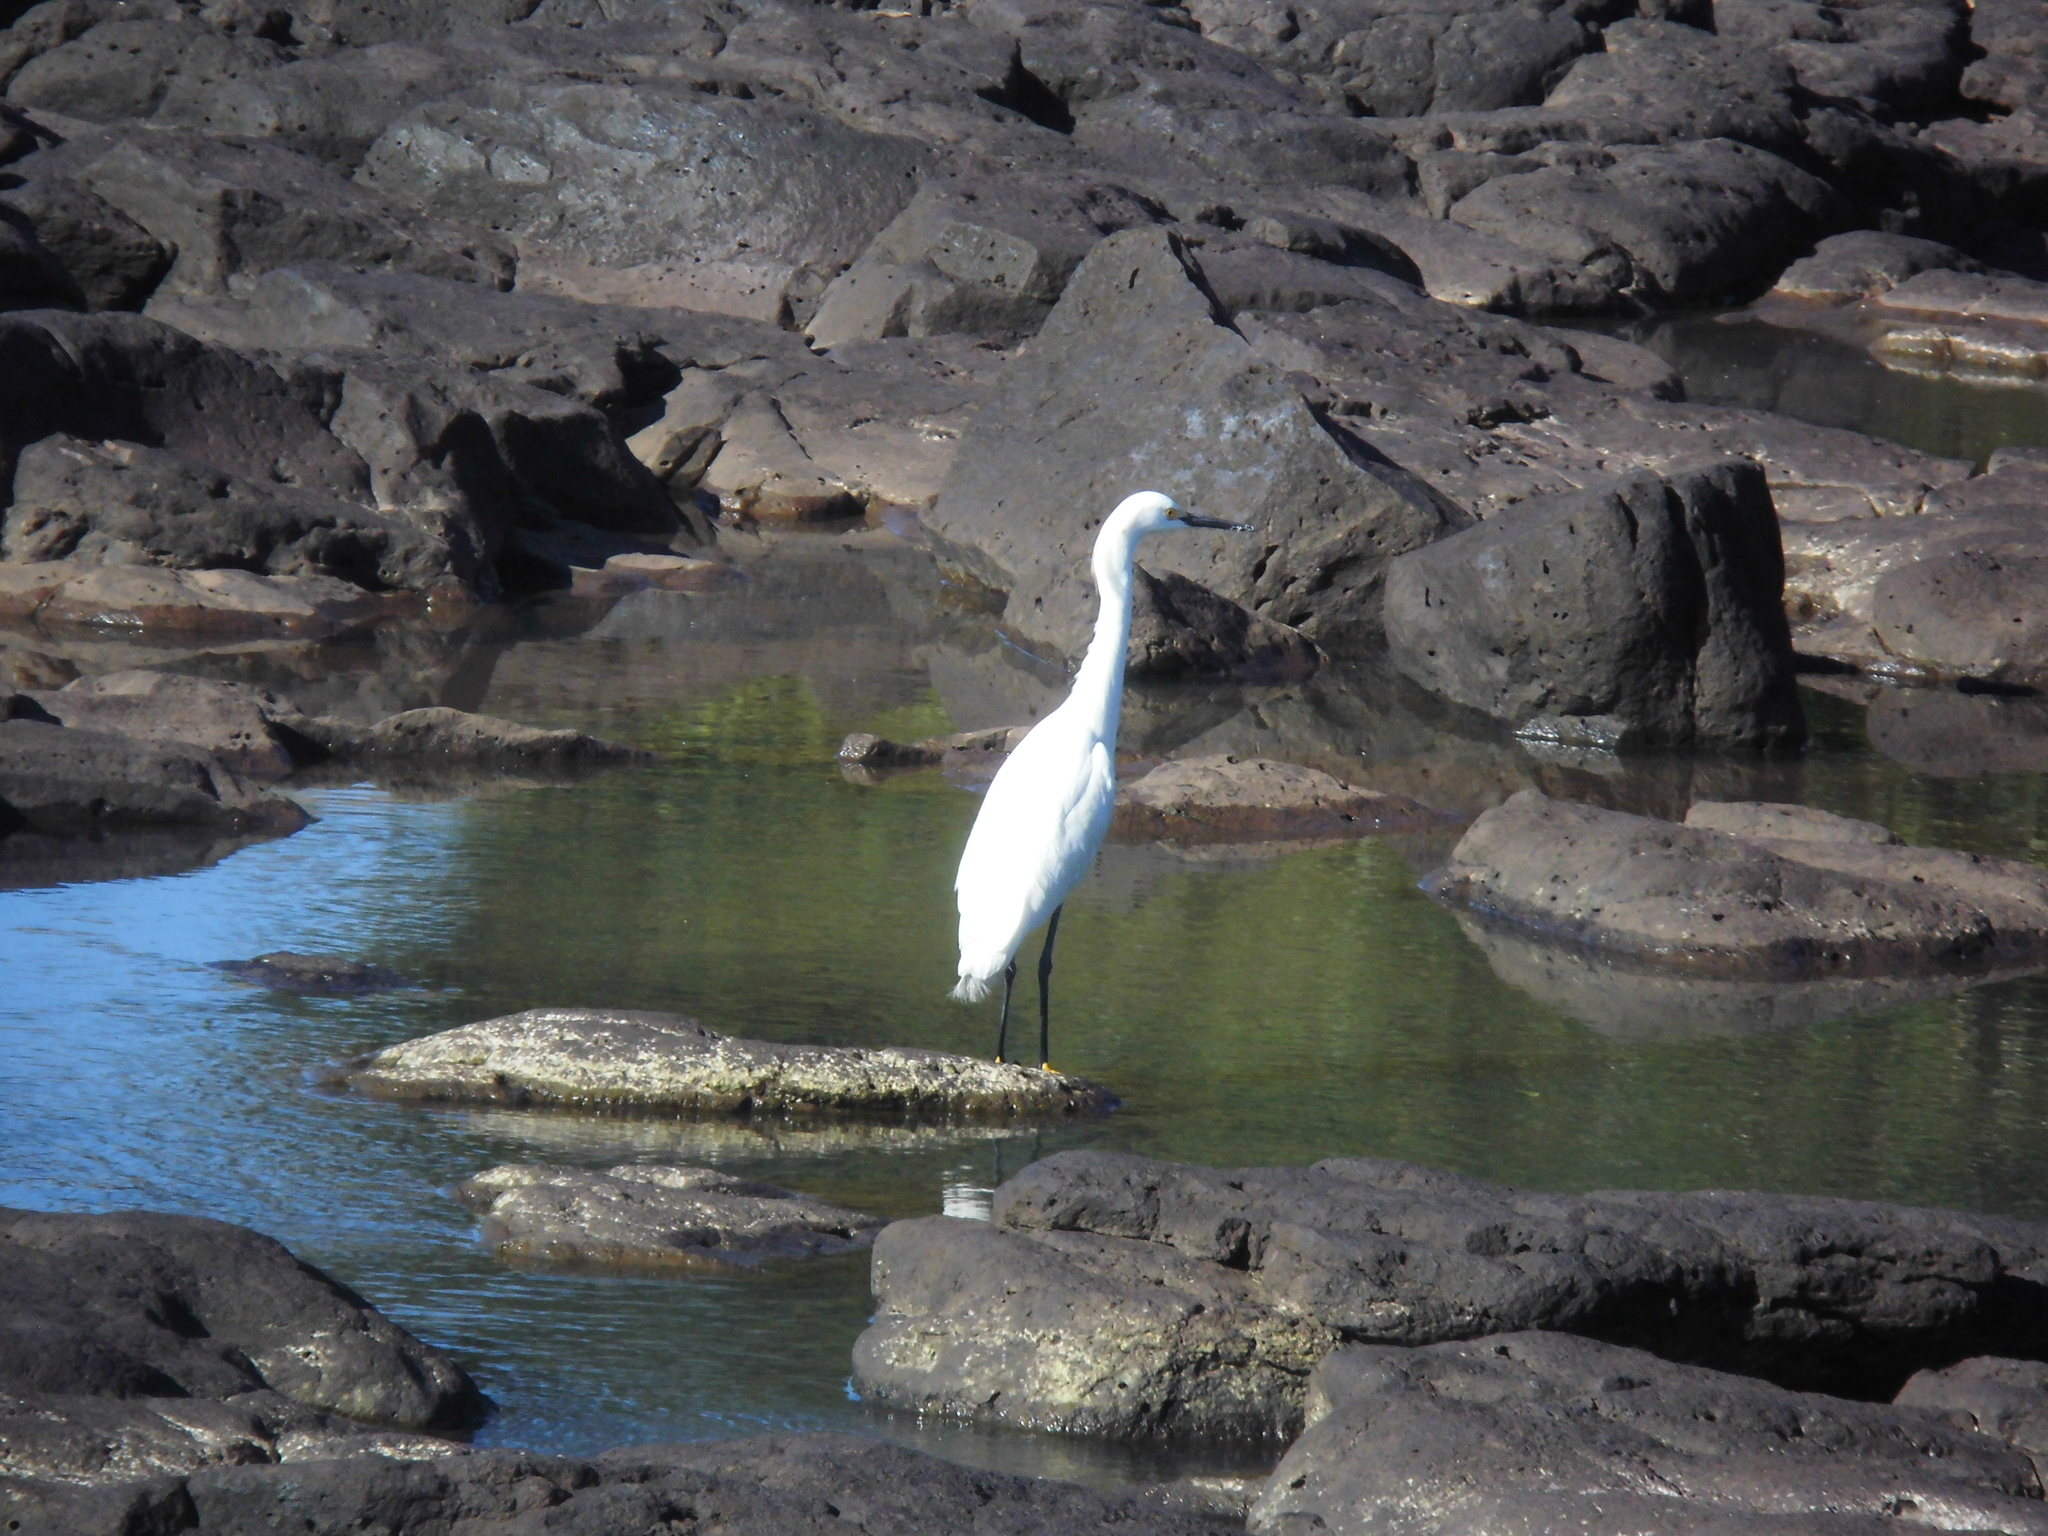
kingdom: Animalia
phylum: Chordata
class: Aves
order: Pelecaniformes
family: Ardeidae
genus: Egretta
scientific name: Egretta thula
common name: Snowy egret
